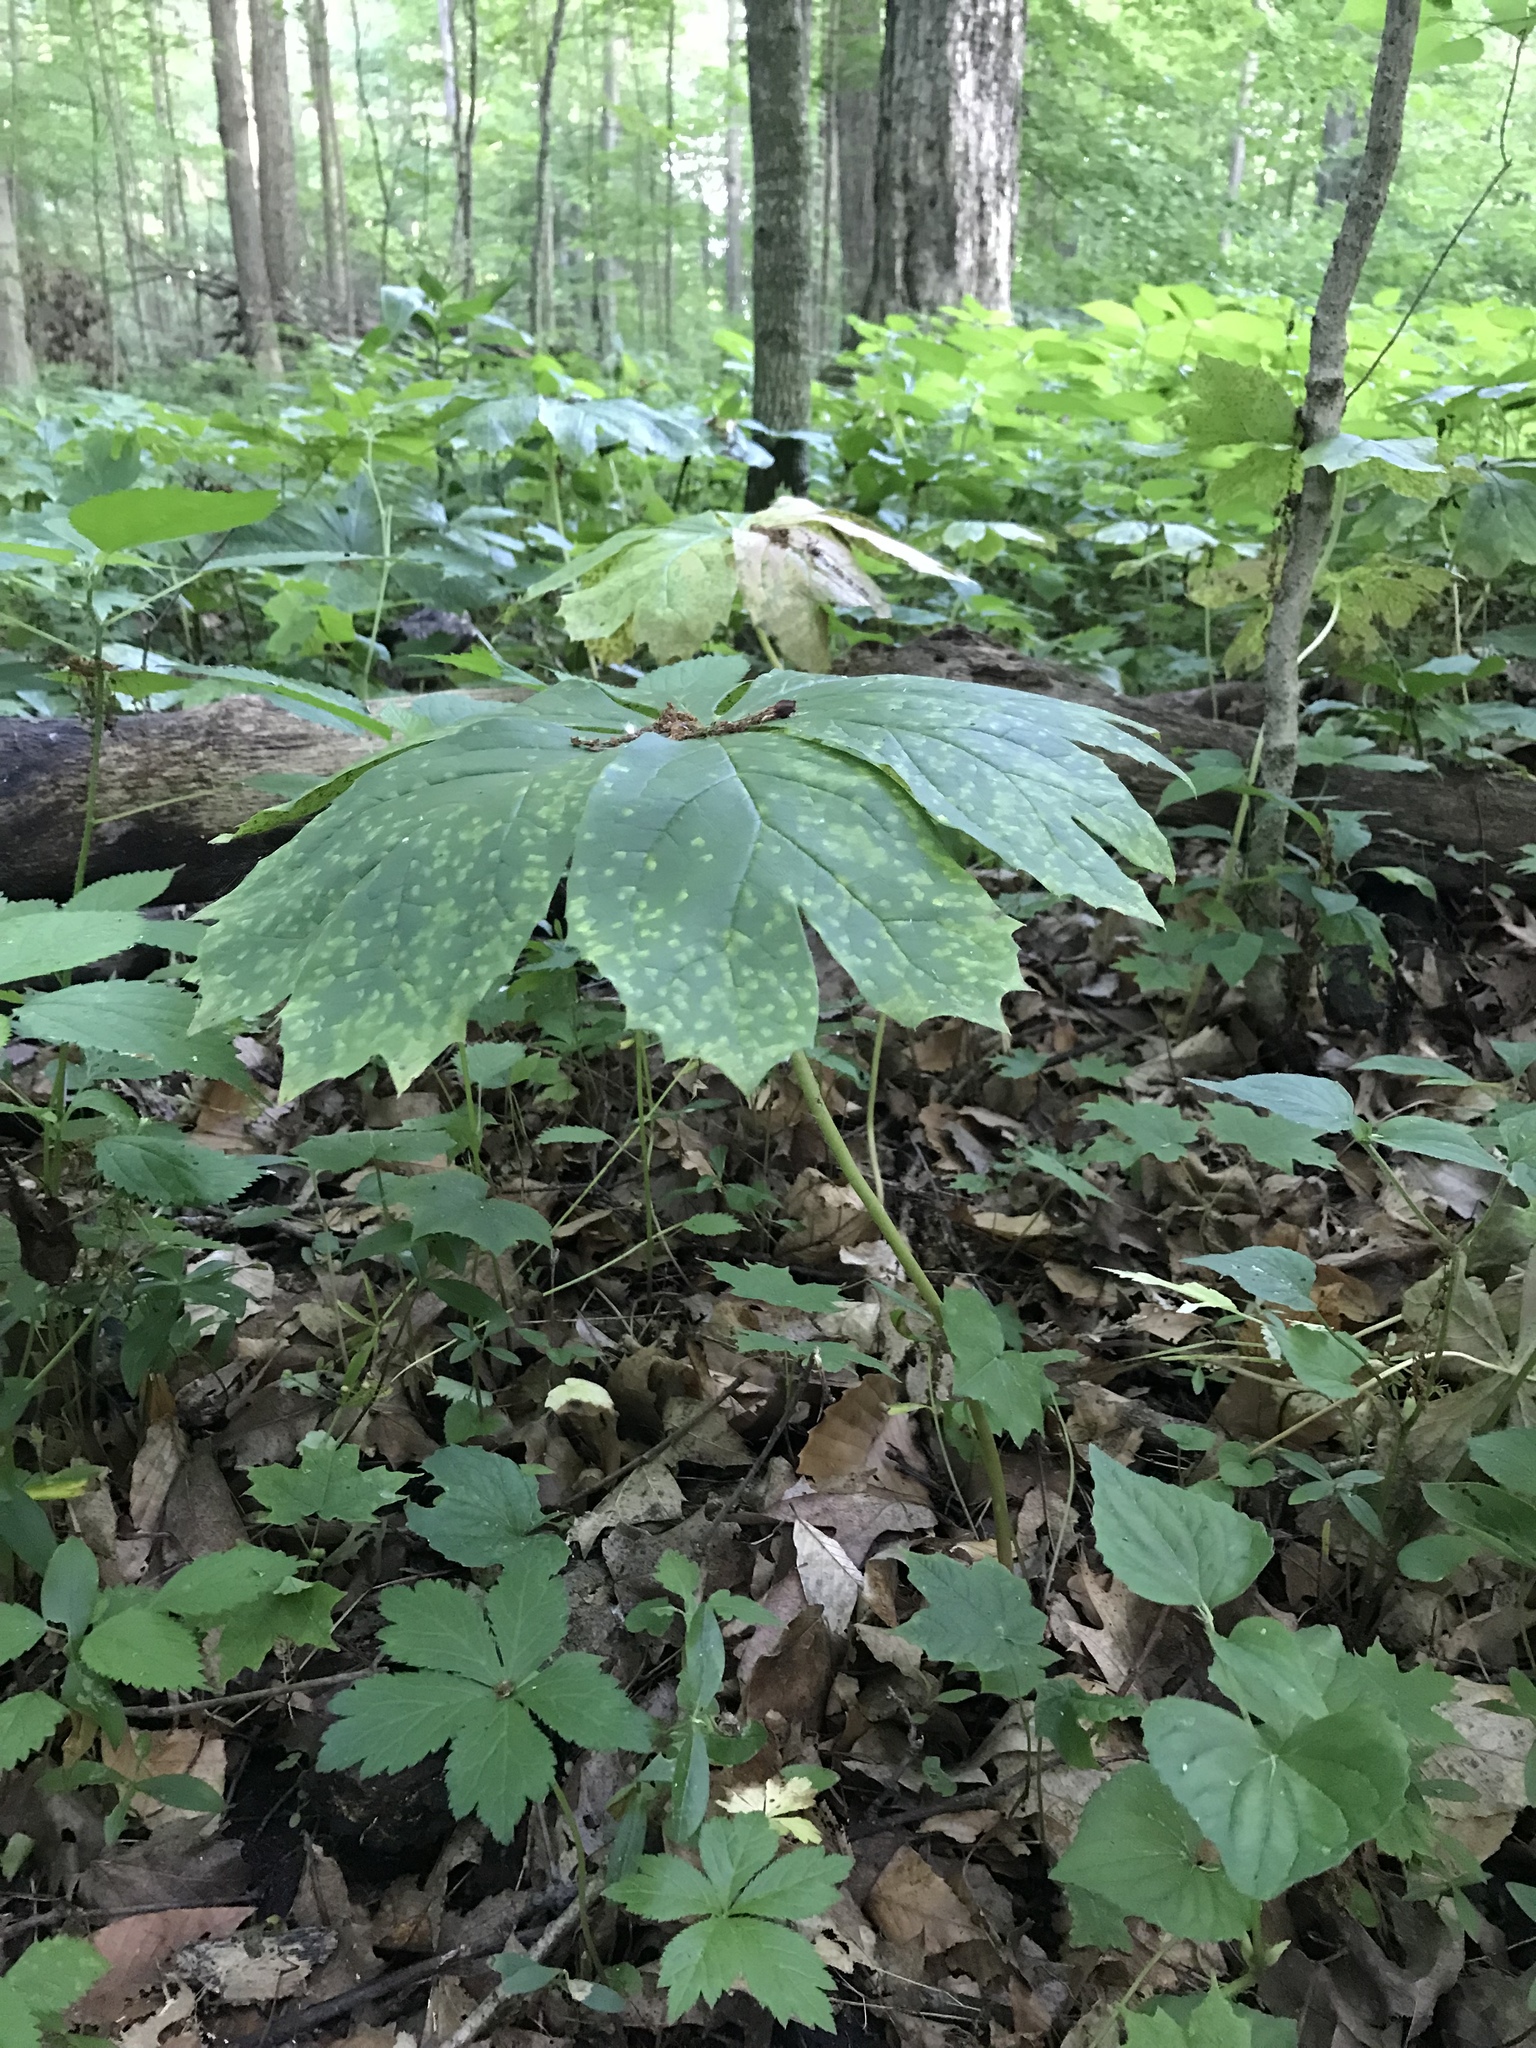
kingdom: Plantae
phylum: Tracheophyta
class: Magnoliopsida
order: Ranunculales
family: Berberidaceae
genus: Podophyllum
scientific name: Podophyllum peltatum
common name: Wild mandrake
